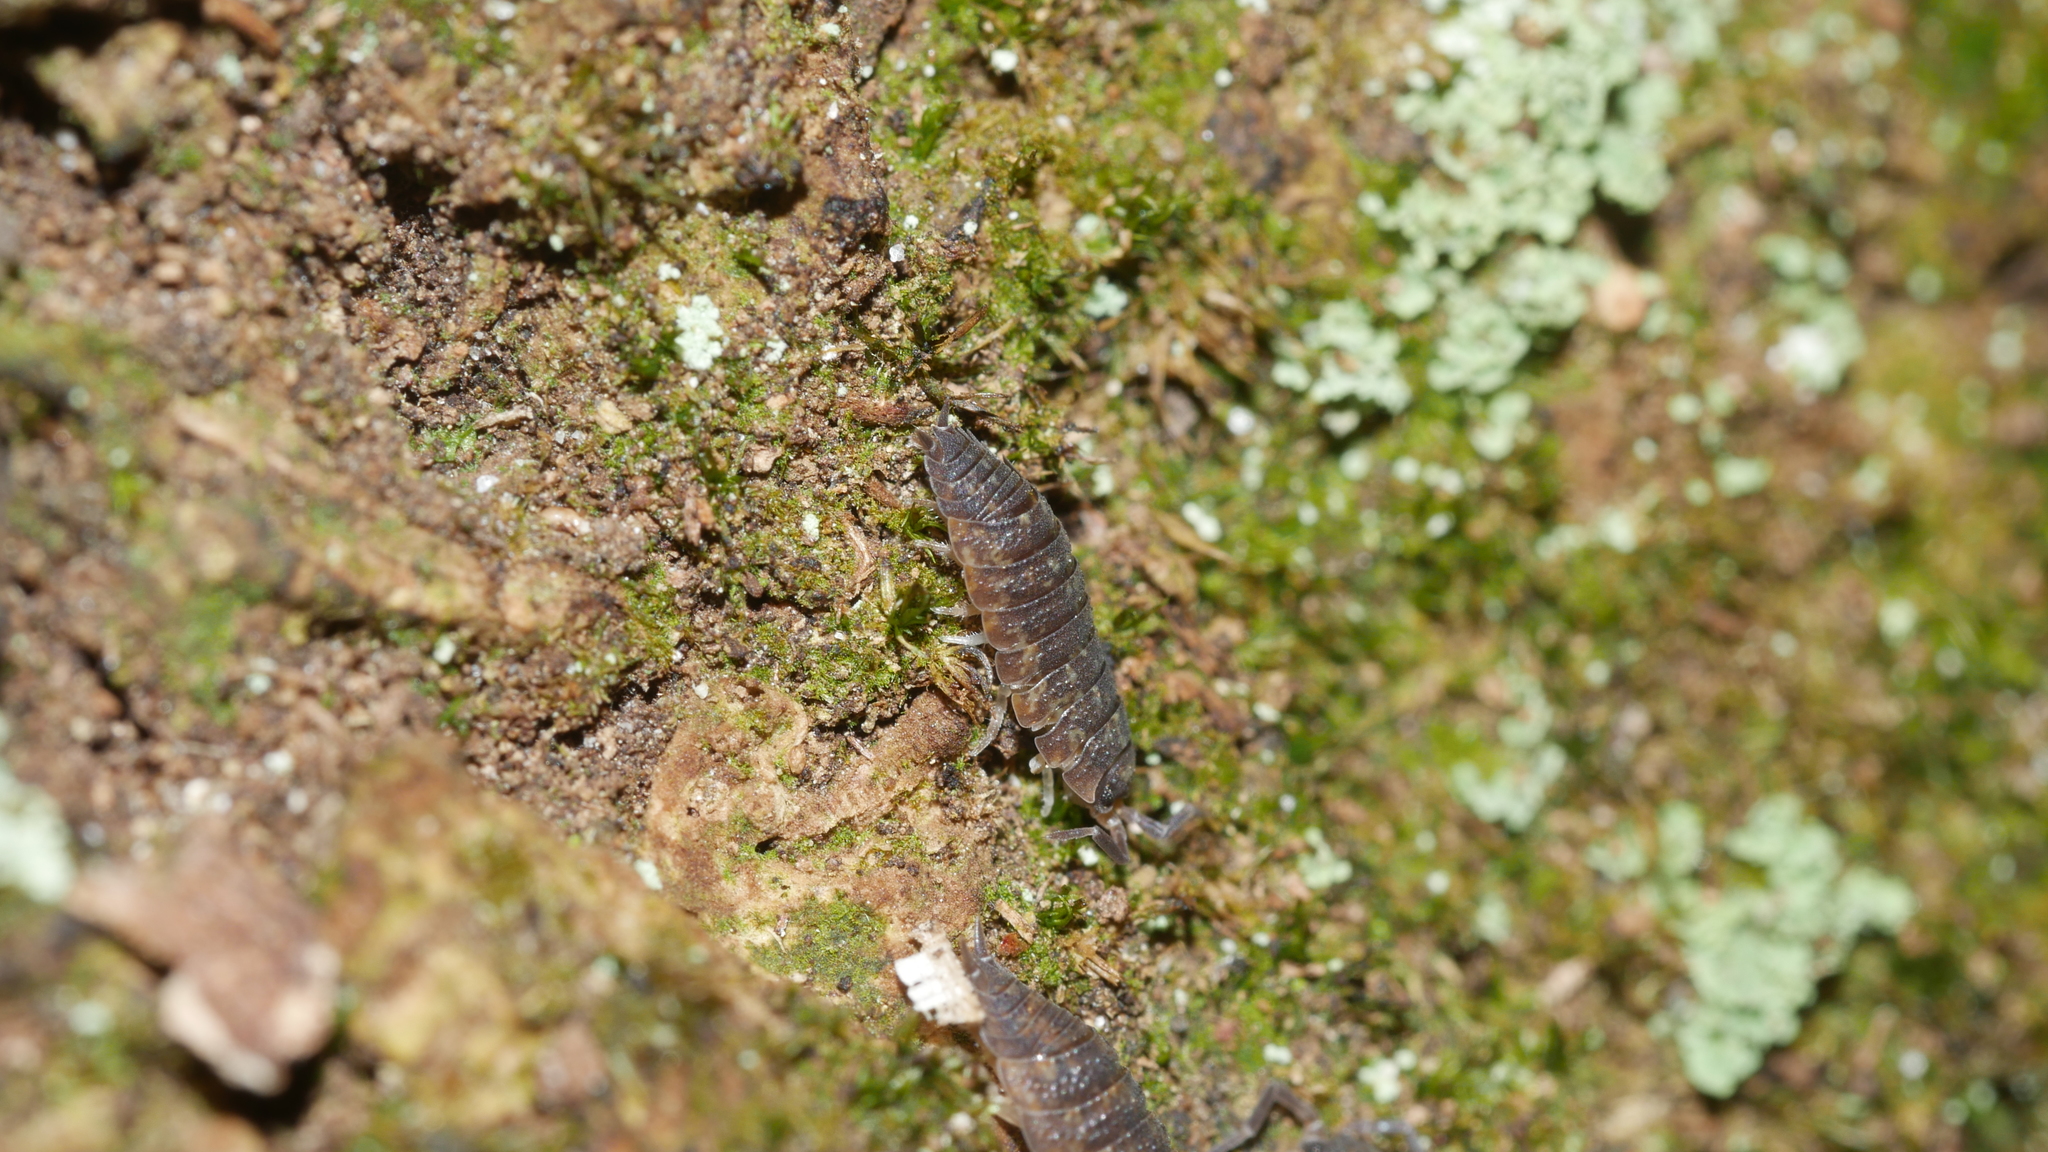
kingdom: Animalia
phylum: Arthropoda
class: Malacostraca
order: Isopoda
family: Porcellionidae
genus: Porcellio
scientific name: Porcellio scaber
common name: Common rough woodlouse
